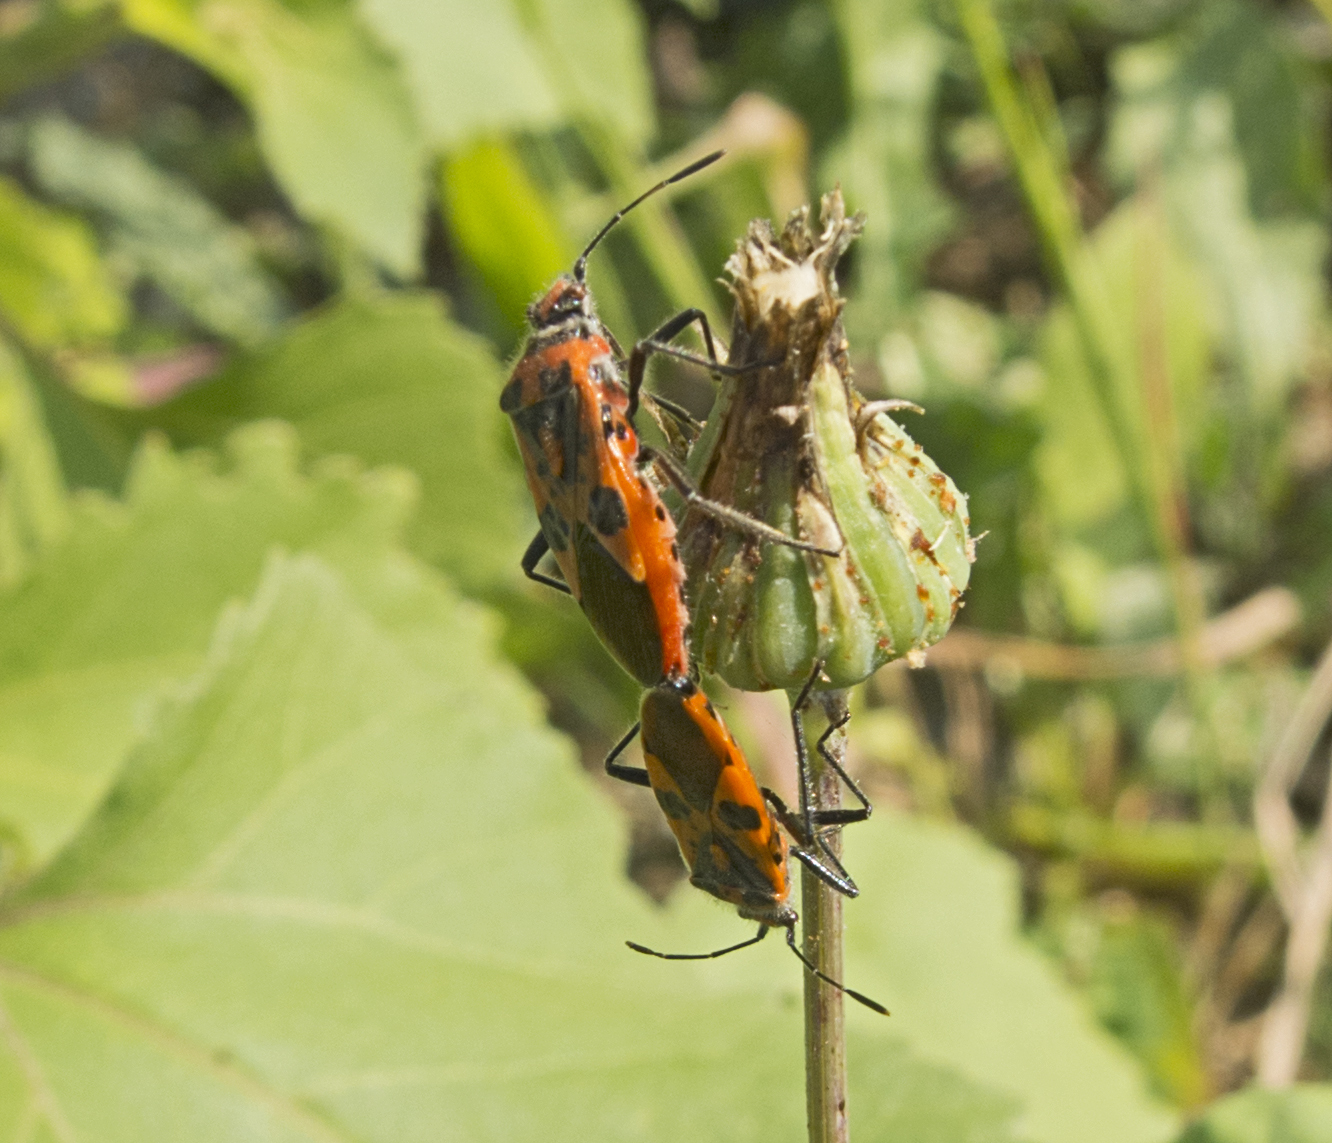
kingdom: Animalia
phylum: Arthropoda
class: Insecta
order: Hemiptera
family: Rhopalidae
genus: Corizus
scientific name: Corizus hyoscyami
